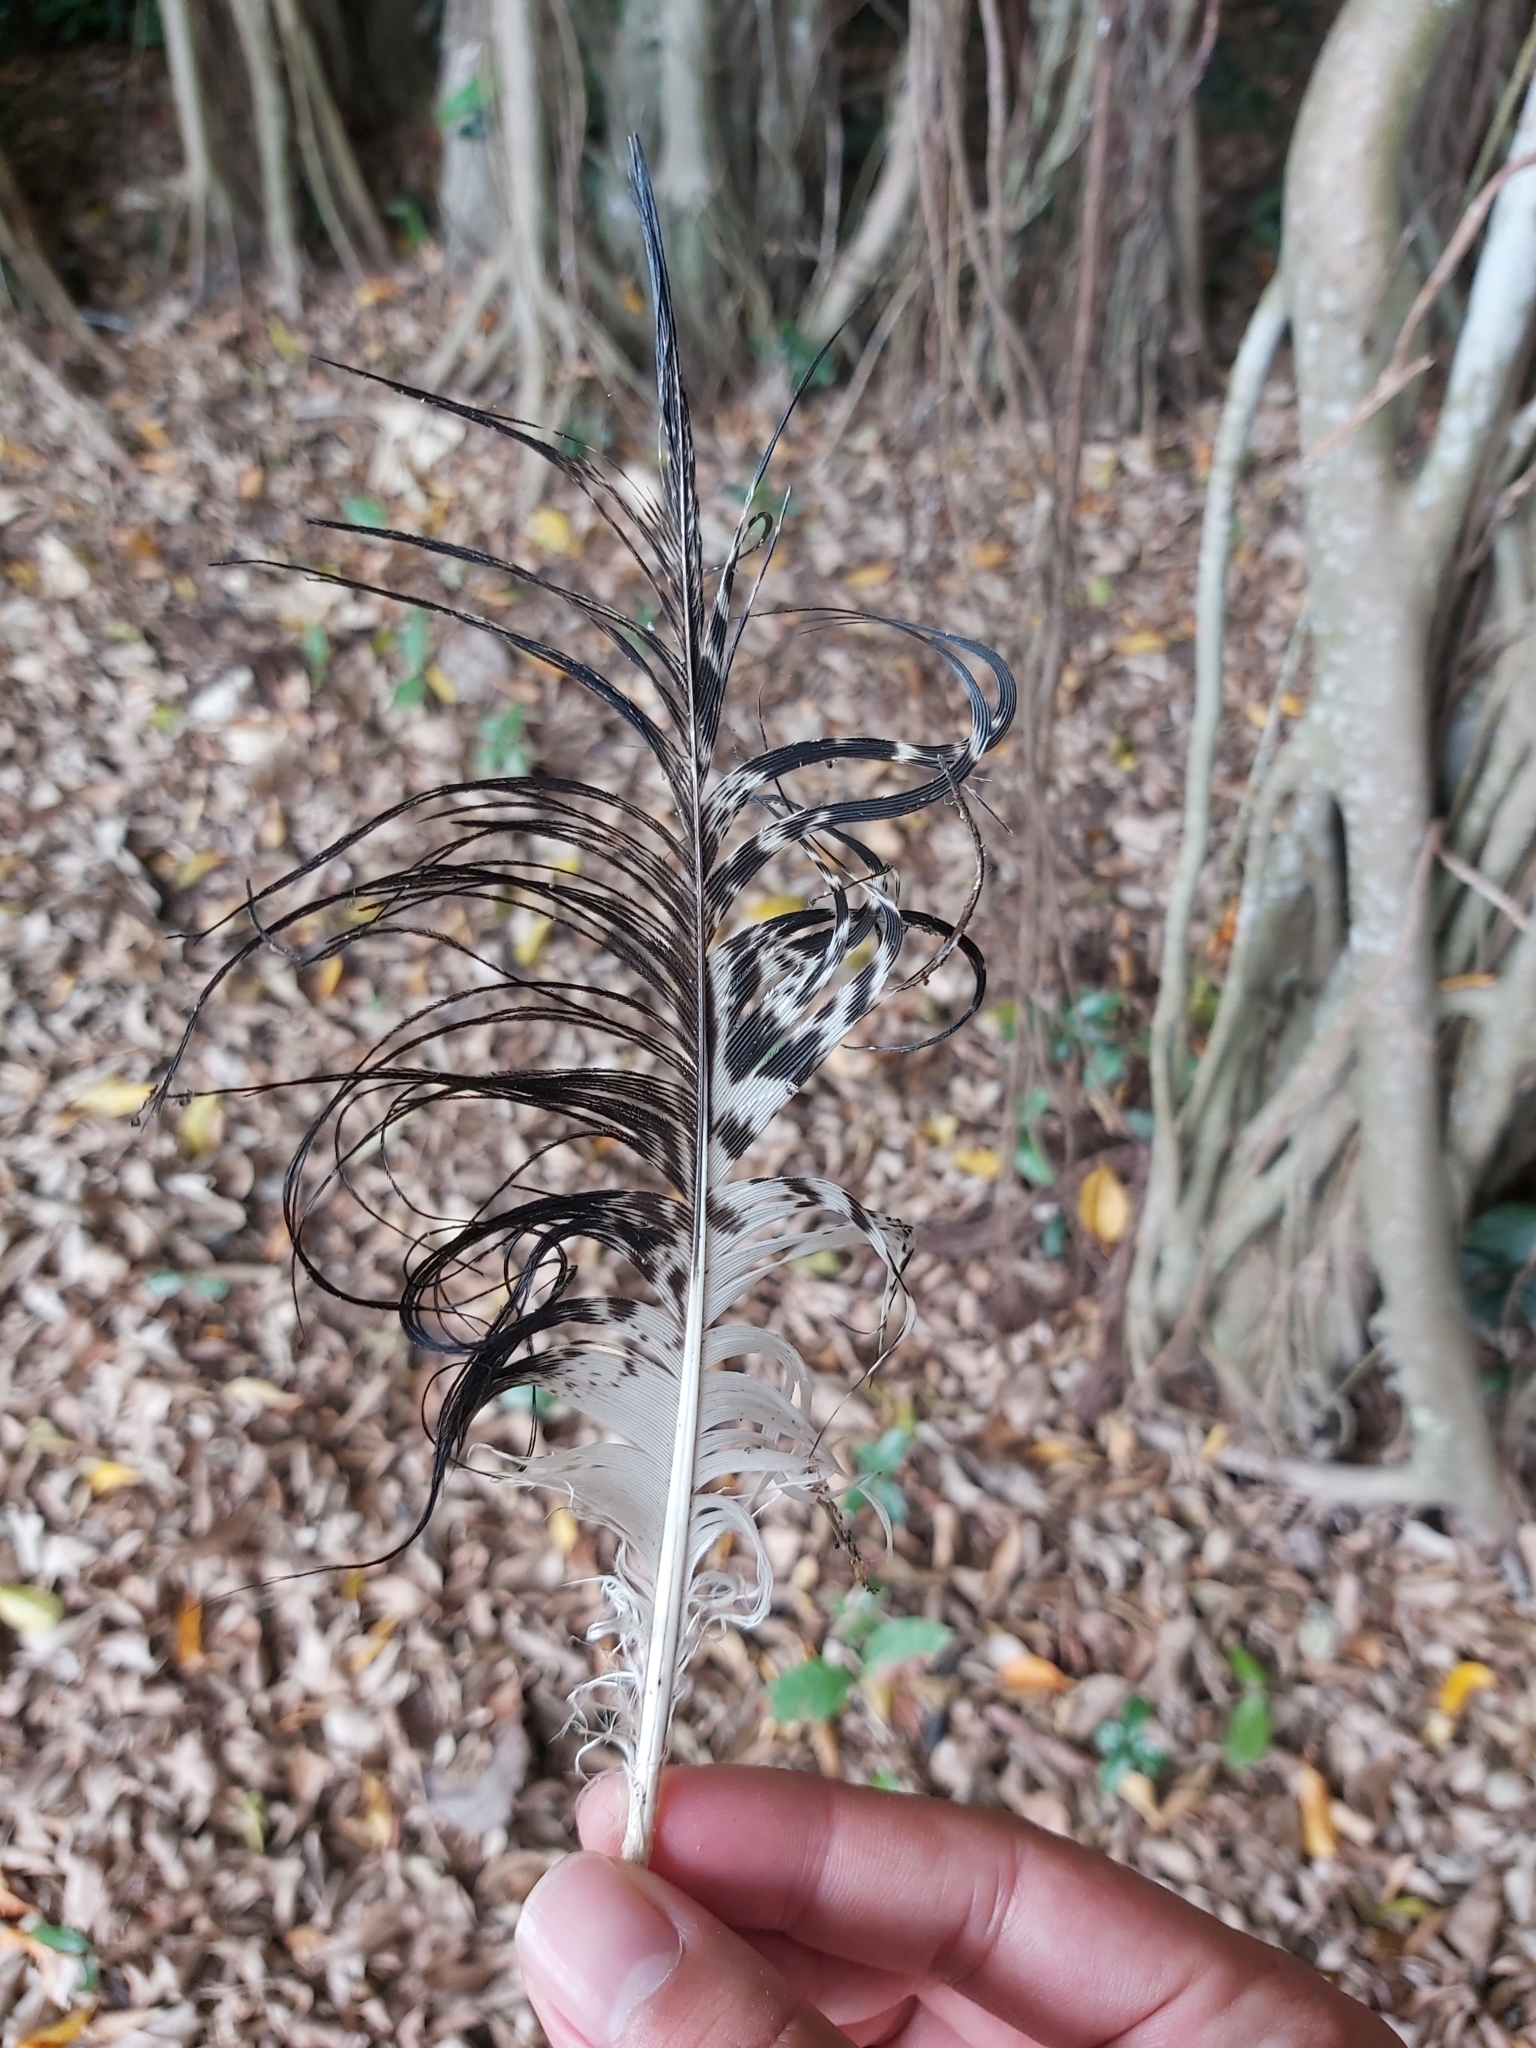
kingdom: Animalia
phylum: Chordata
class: Aves
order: Pelecaniformes
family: Threskiornithidae
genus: Threskiornis
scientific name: Threskiornis molucca
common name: Australian white ibis
